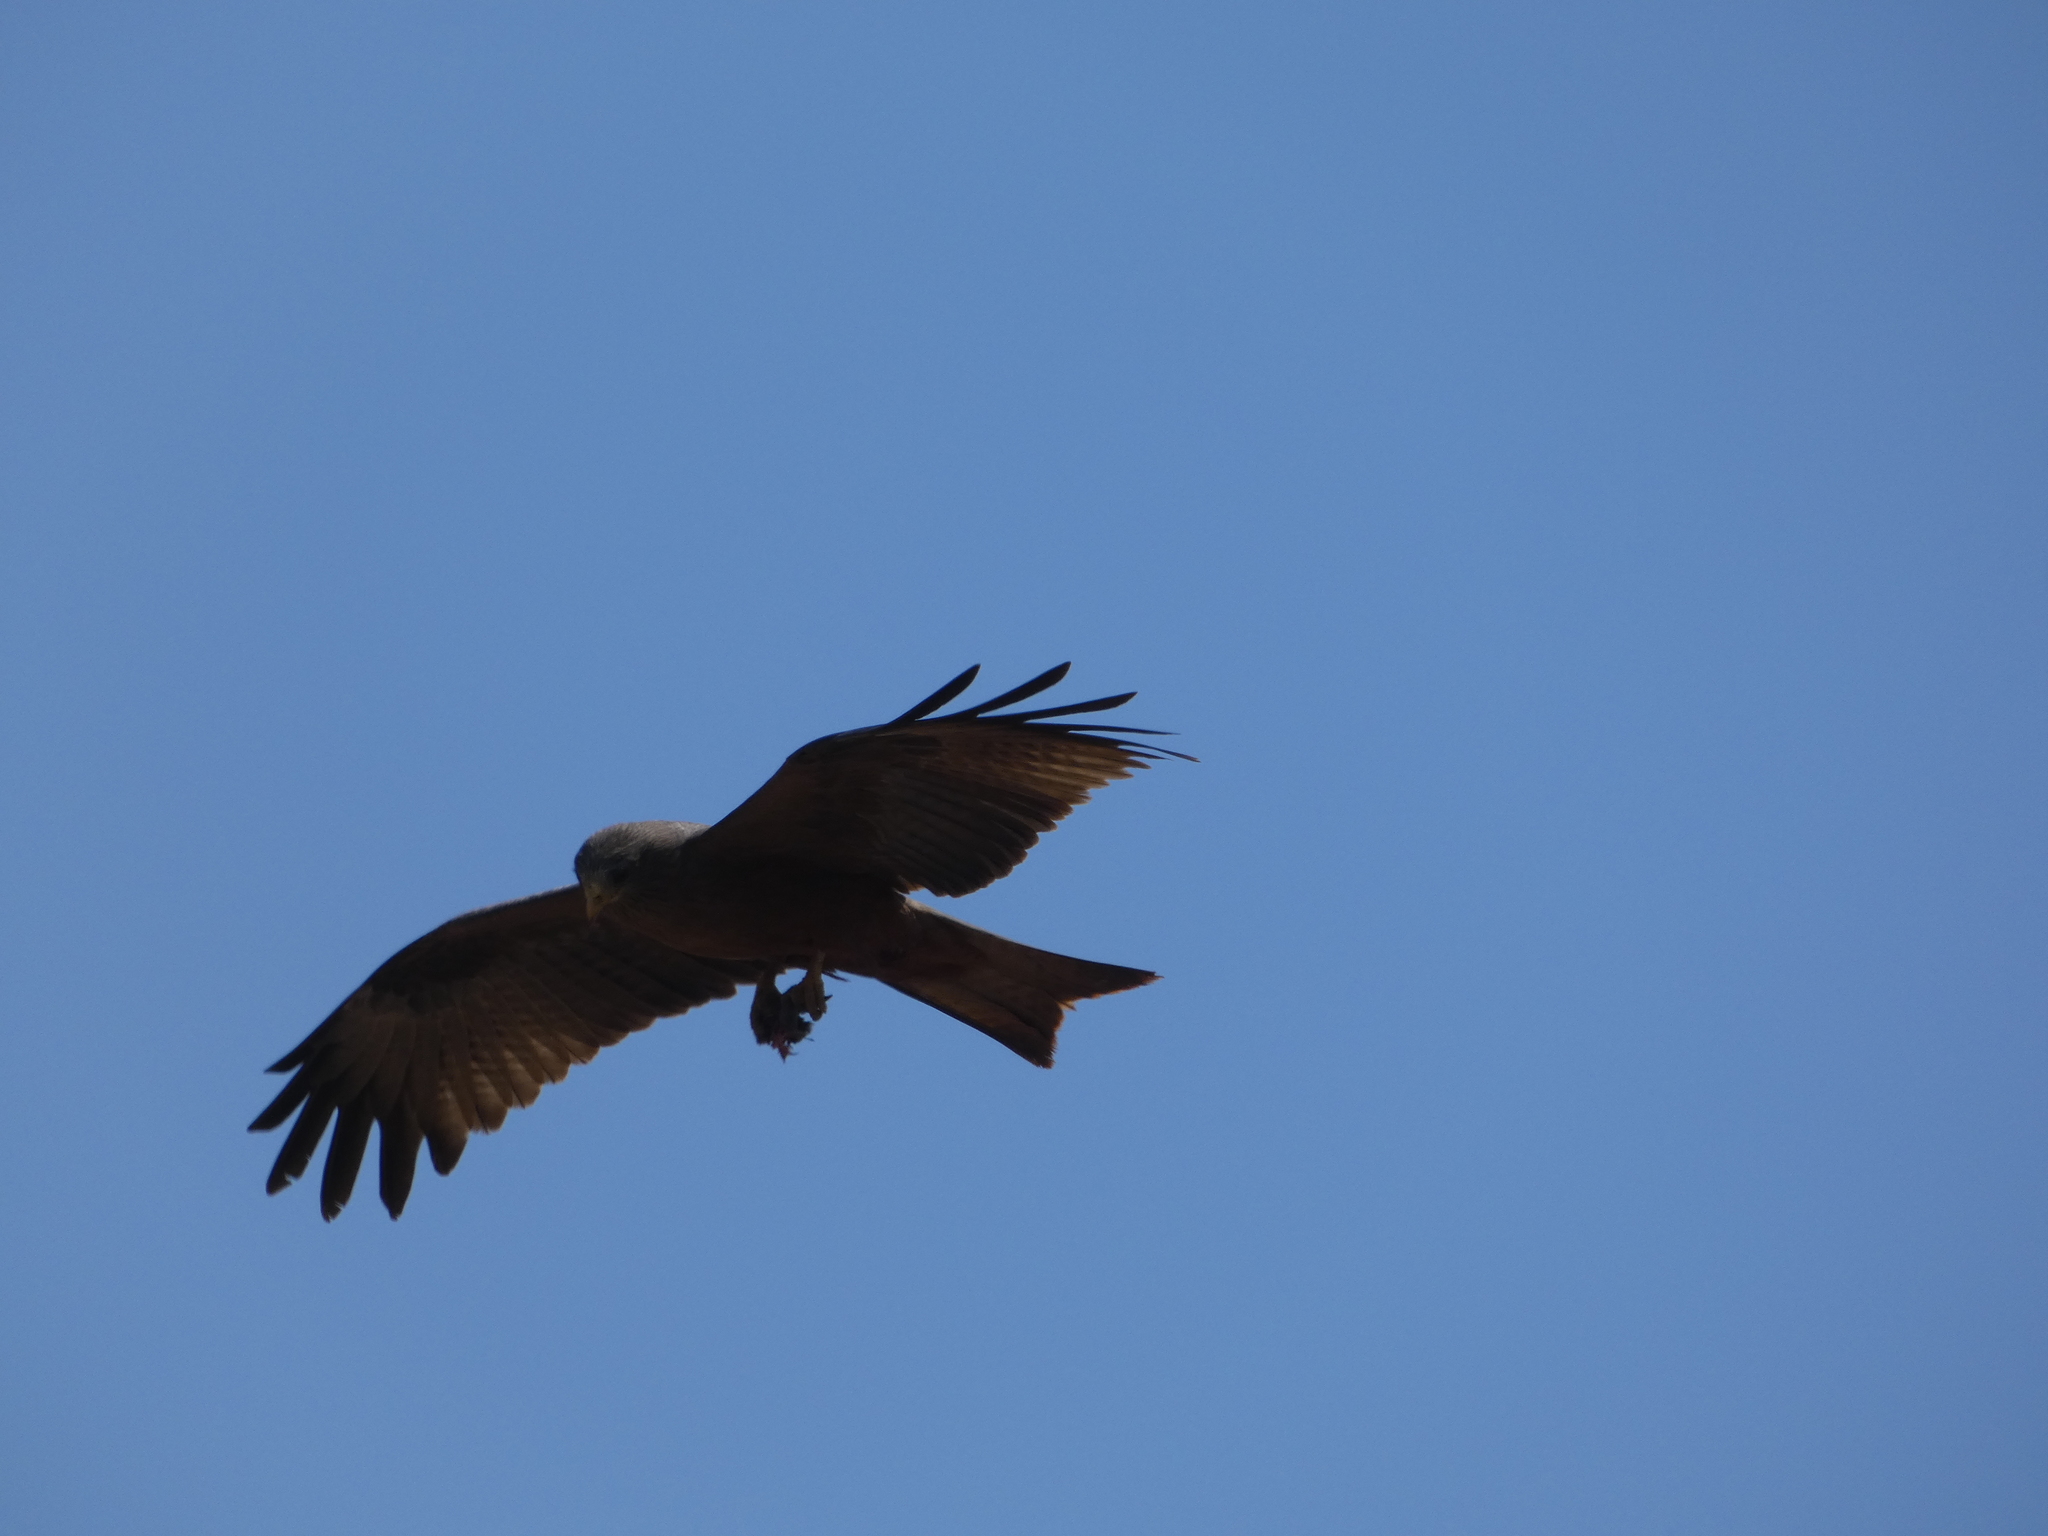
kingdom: Animalia
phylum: Chordata
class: Aves
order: Accipitriformes
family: Accipitridae
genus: Milvus
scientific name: Milvus migrans
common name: Black kite
